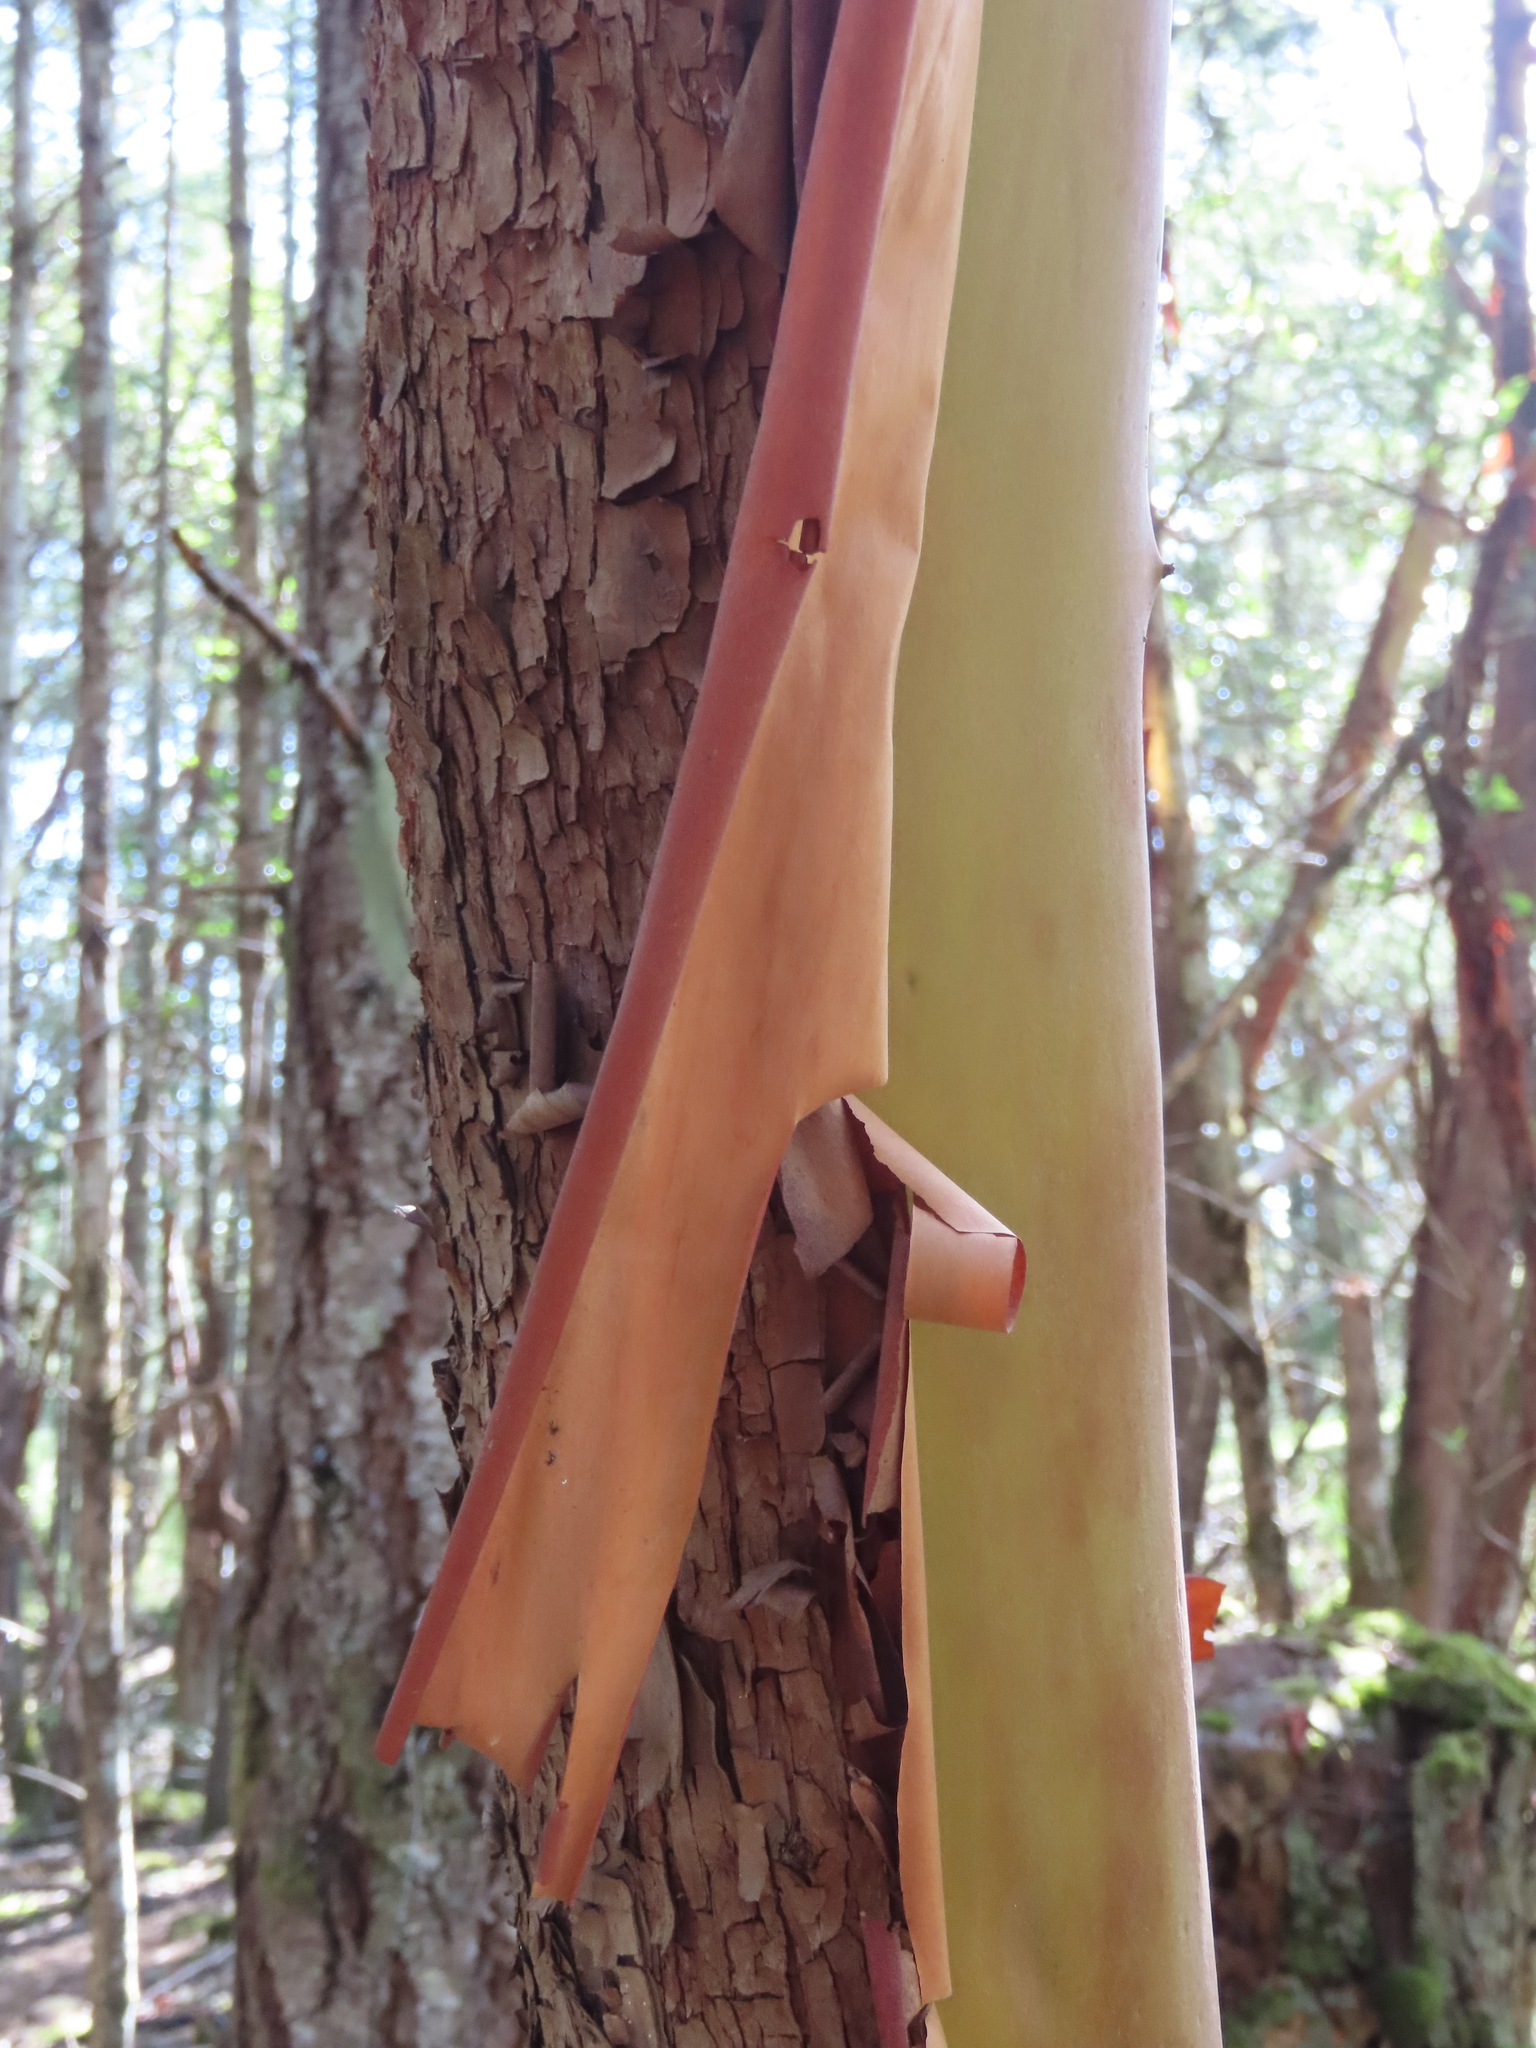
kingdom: Plantae
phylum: Tracheophyta
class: Magnoliopsida
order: Ericales
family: Ericaceae
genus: Arbutus
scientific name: Arbutus menziesii
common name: Pacific madrone
